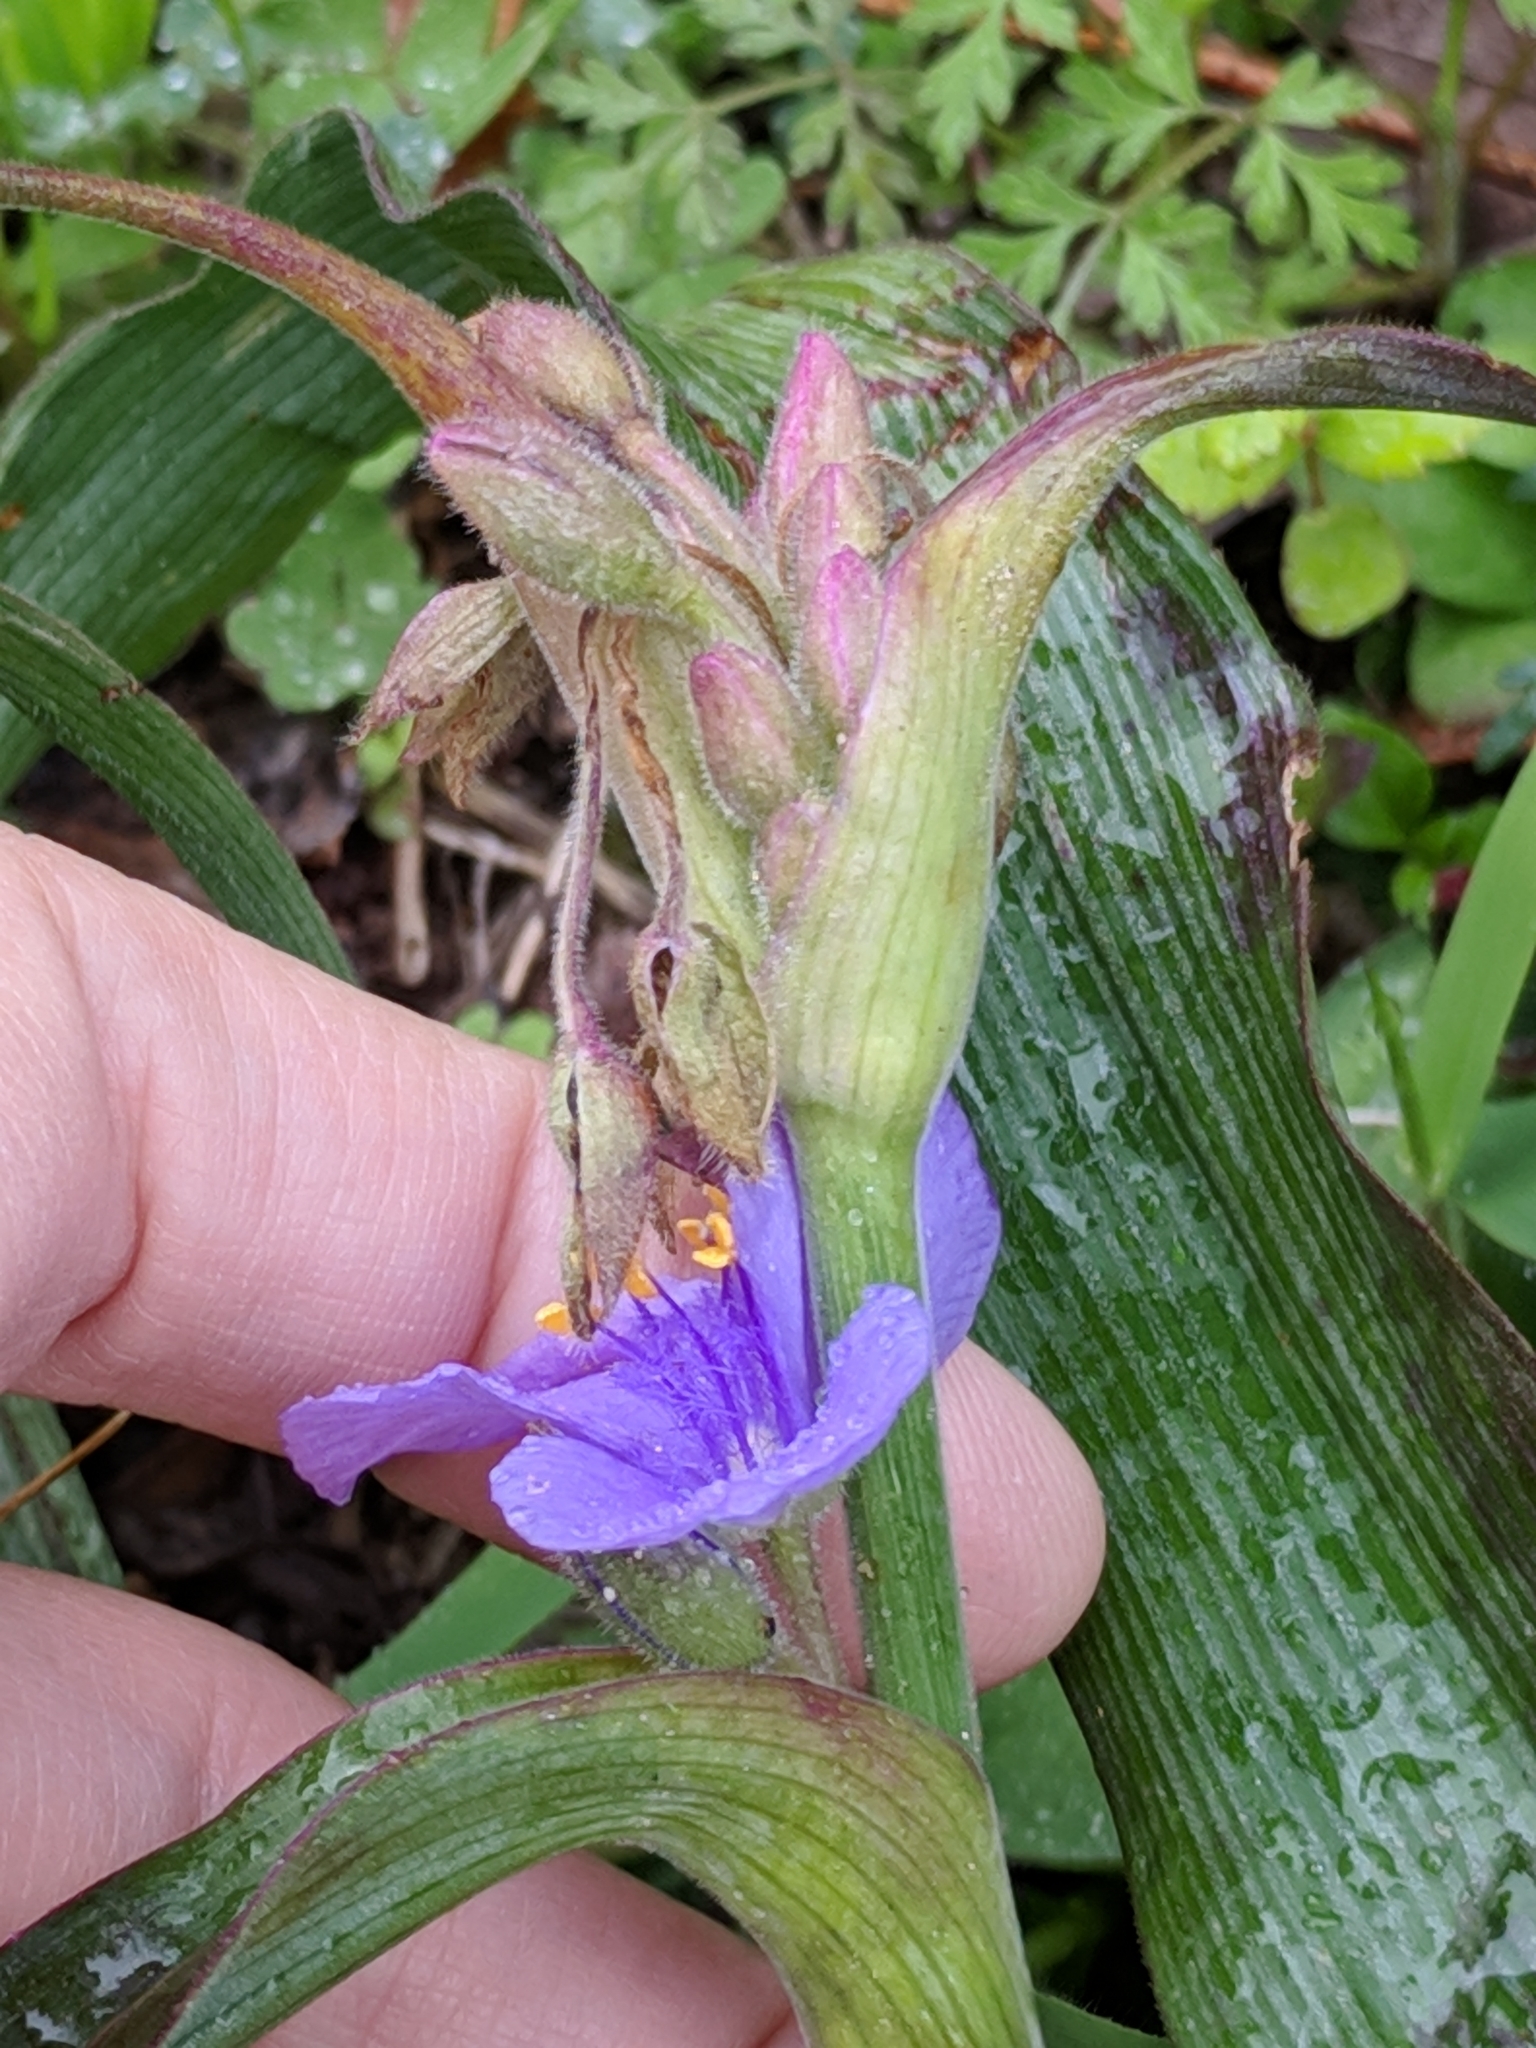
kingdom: Plantae
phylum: Tracheophyta
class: Liliopsida
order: Commelinales
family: Commelinaceae
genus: Tradescantia
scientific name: Tradescantia gigantea
